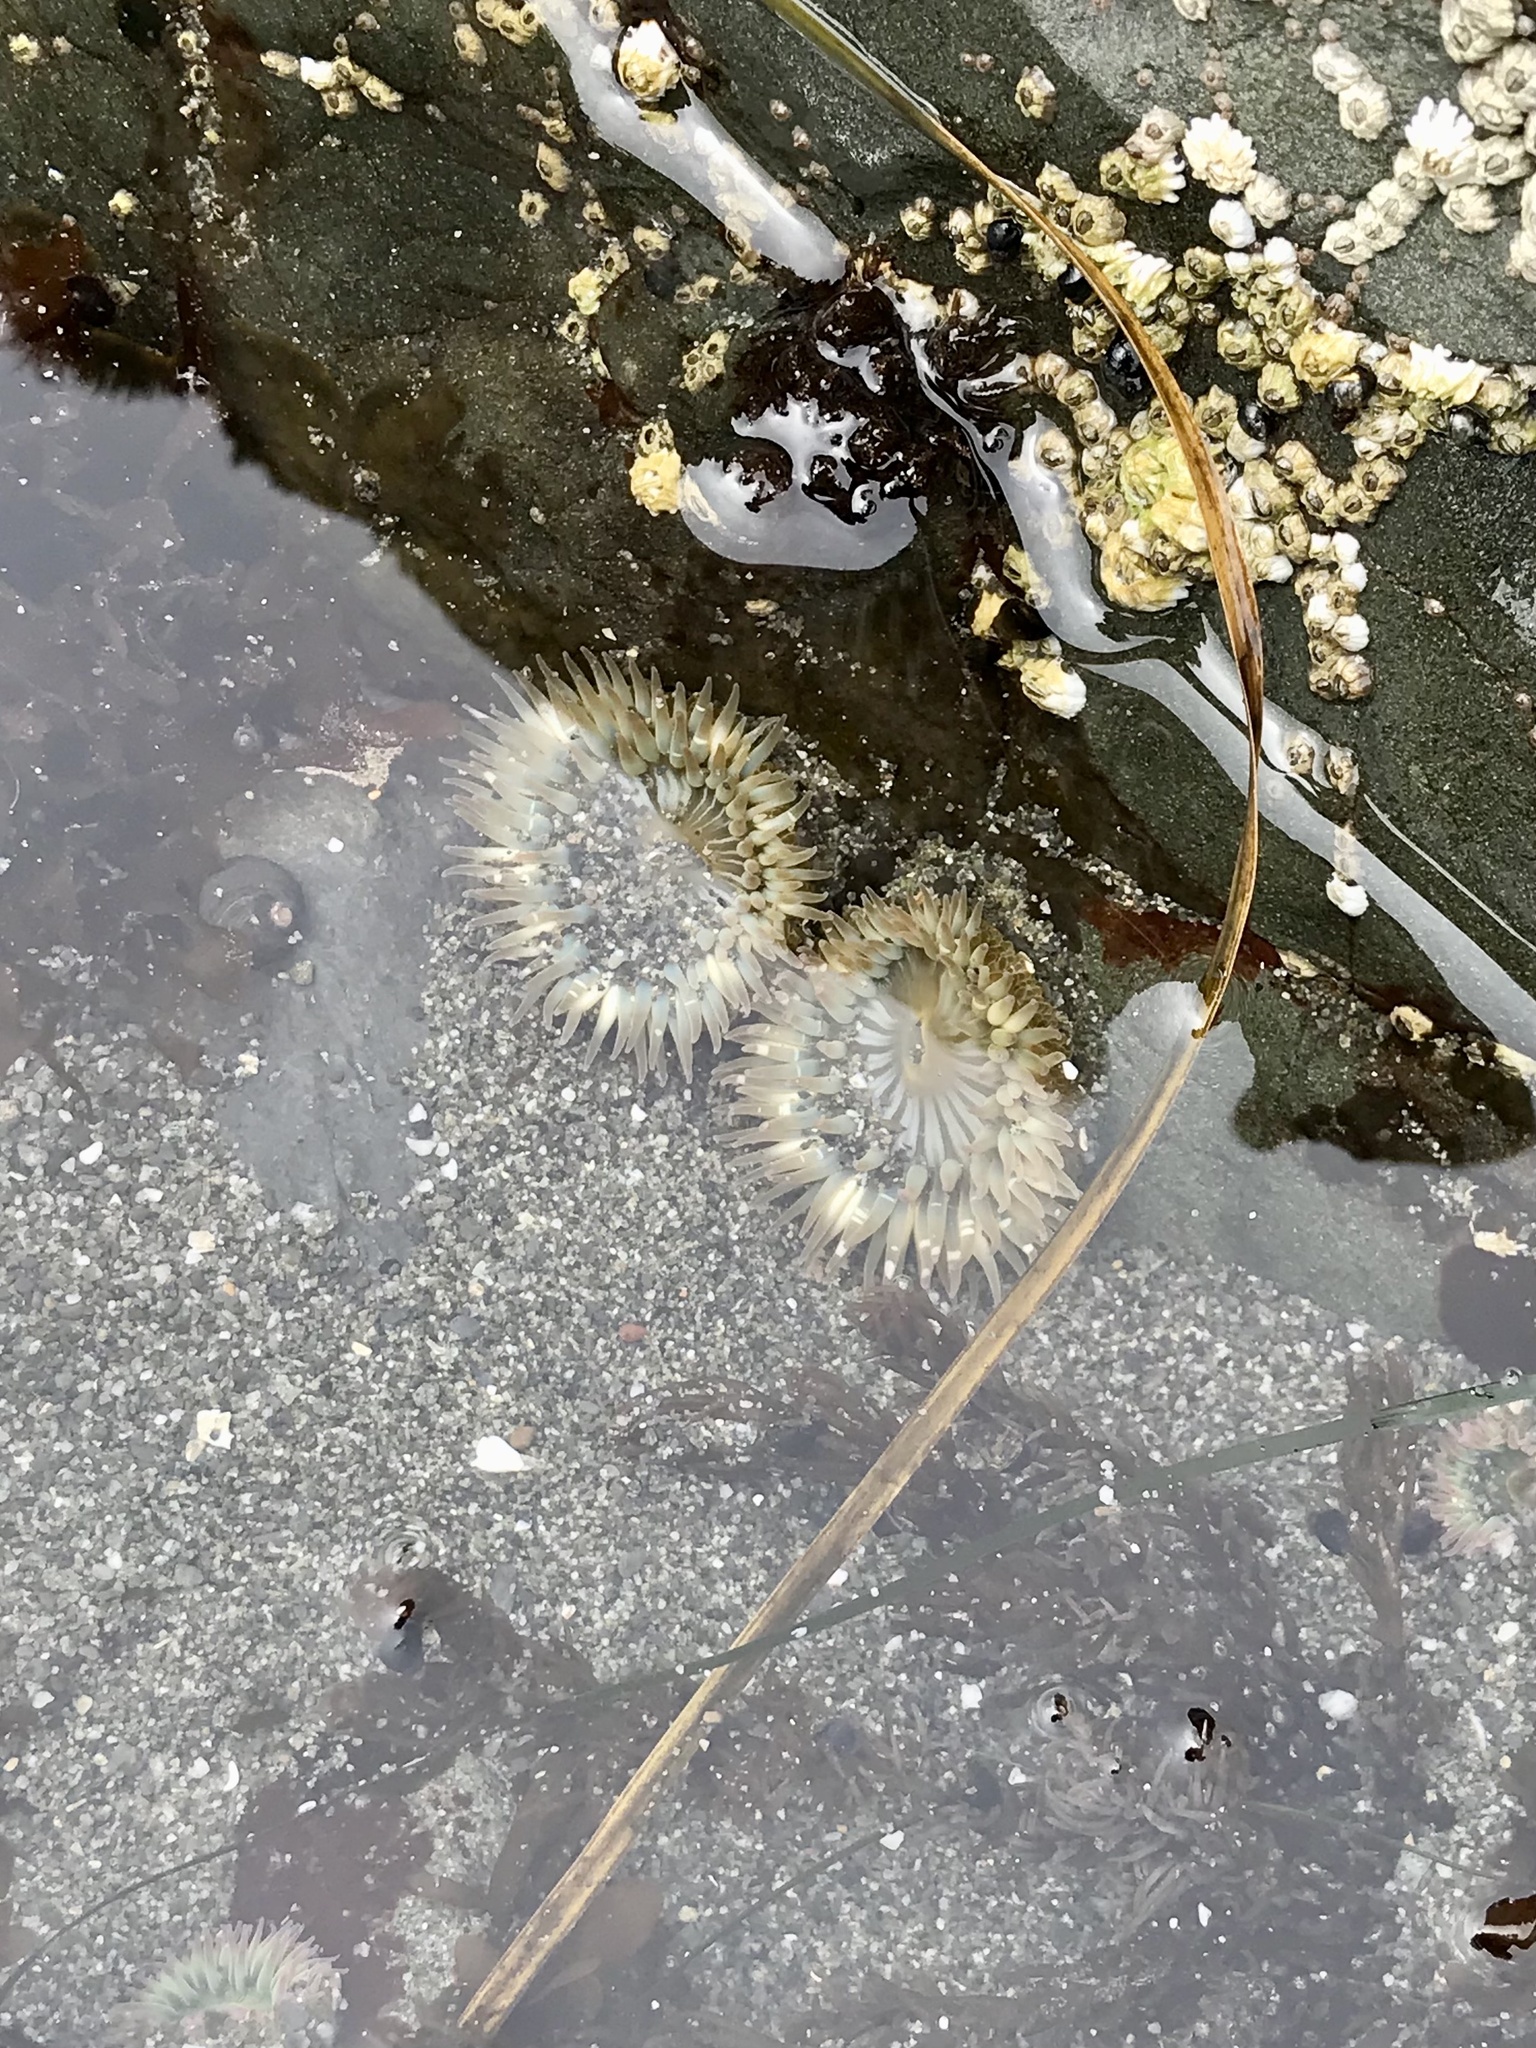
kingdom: Animalia
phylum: Cnidaria
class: Anthozoa
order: Actiniaria
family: Actiniidae
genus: Anthopleura
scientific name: Anthopleura elegantissima
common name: Clonal anemone
